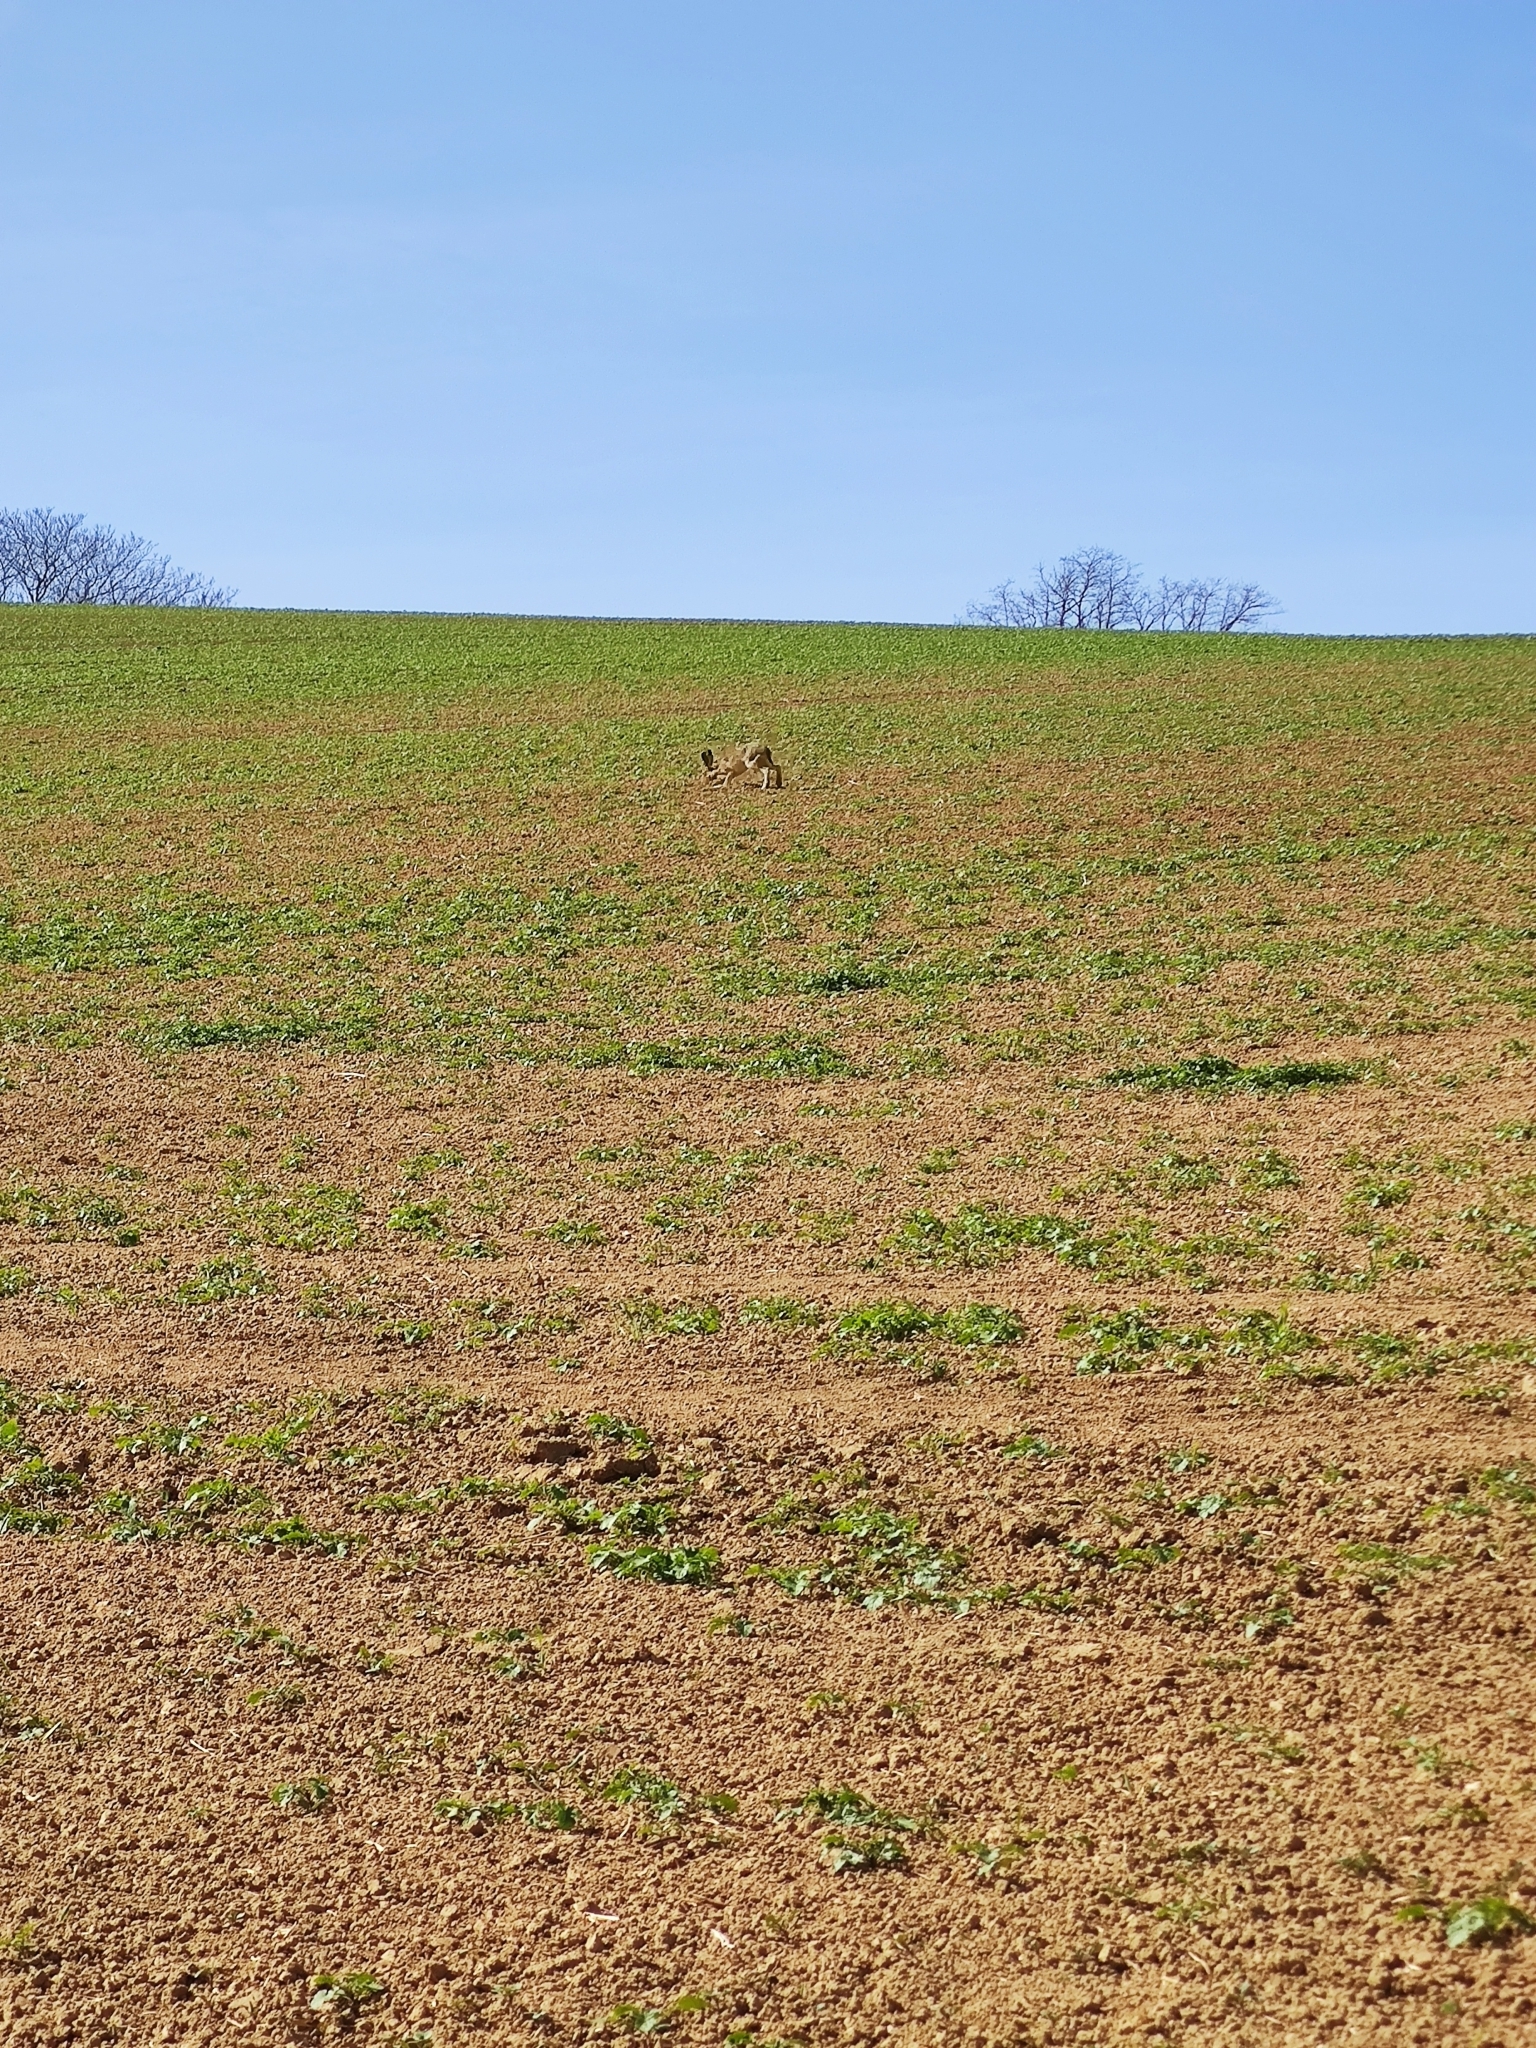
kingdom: Animalia
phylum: Chordata
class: Mammalia
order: Lagomorpha
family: Leporidae
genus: Lepus
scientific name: Lepus europaeus
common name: European hare
